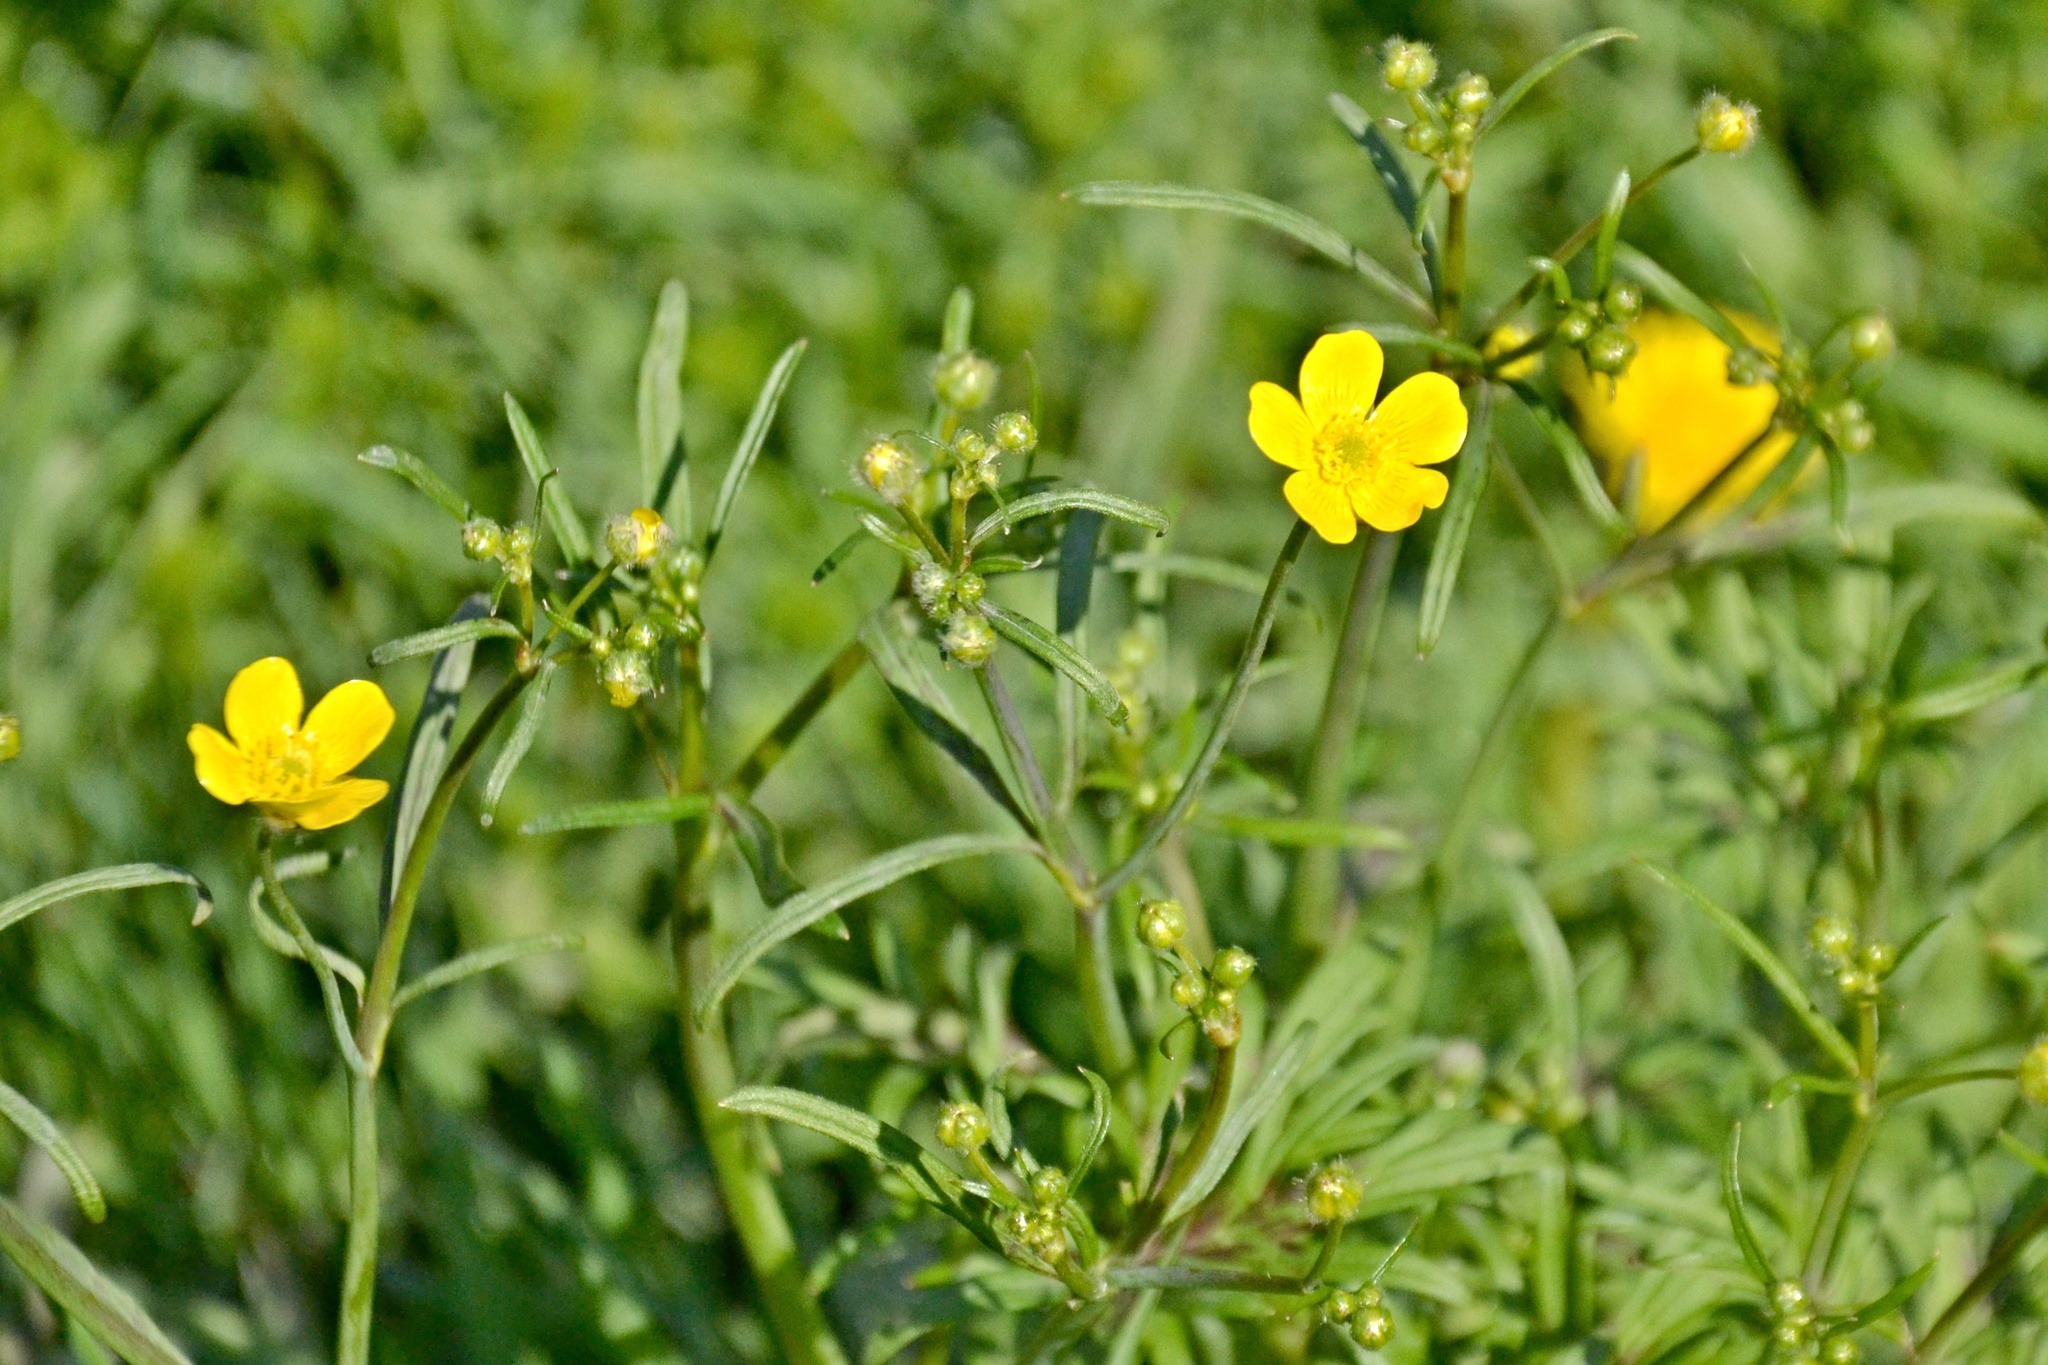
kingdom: Plantae
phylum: Tracheophyta
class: Magnoliopsida
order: Ranunculales
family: Ranunculaceae
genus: Ranunculus
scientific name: Ranunculus acris
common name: Meadow buttercup
